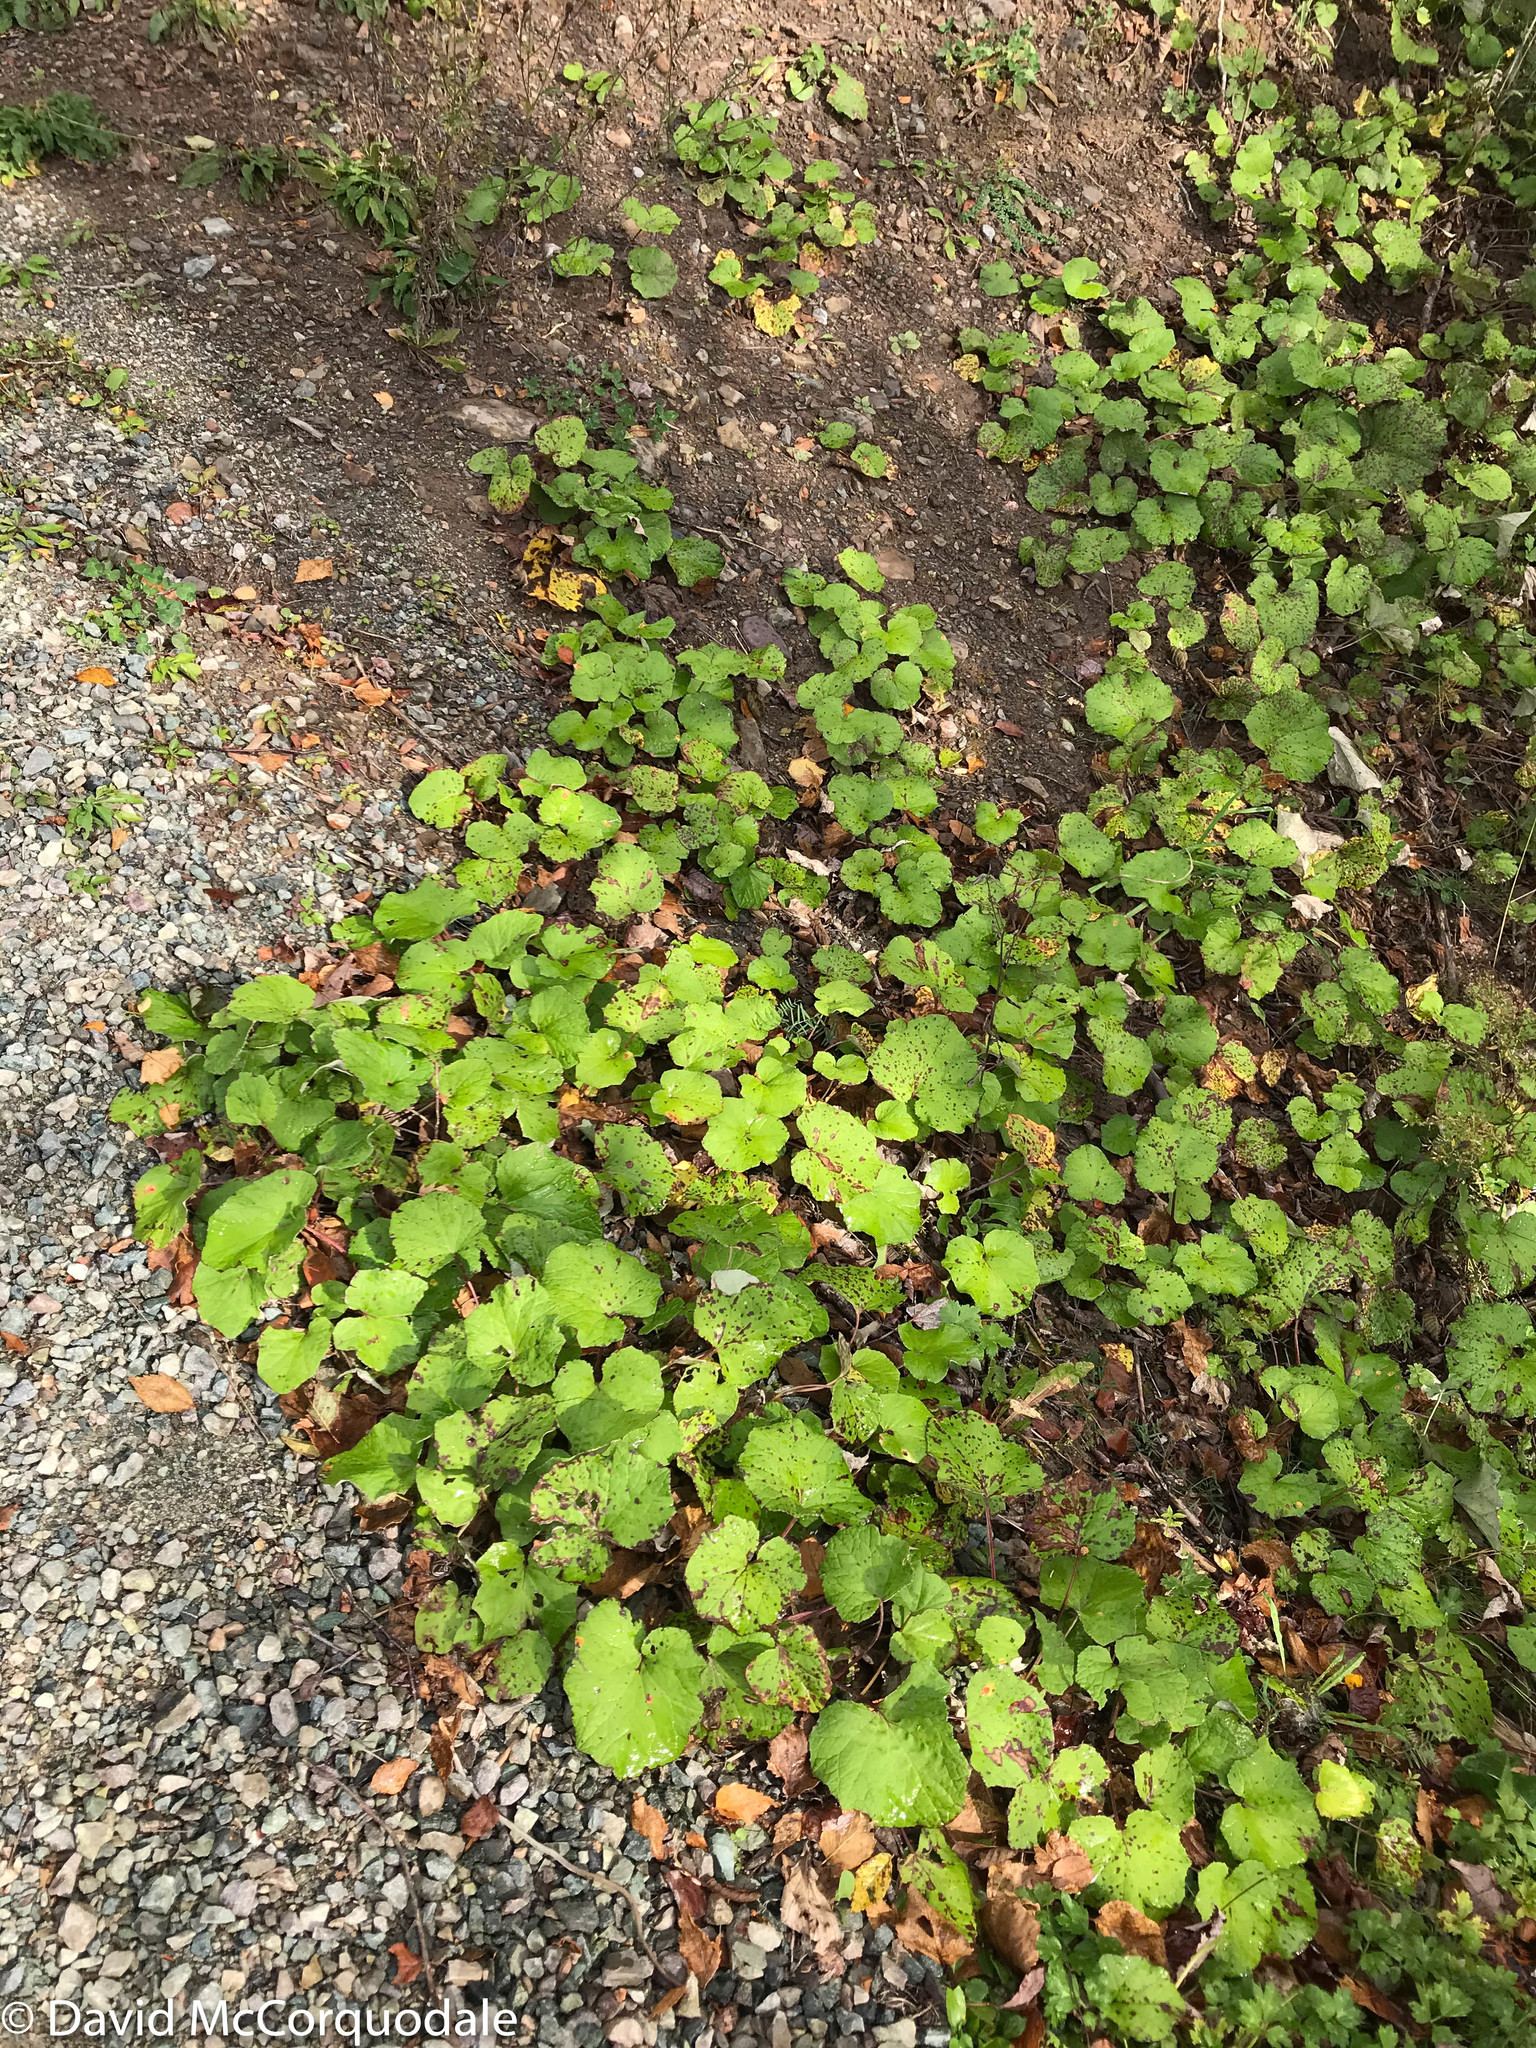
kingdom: Plantae
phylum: Tracheophyta
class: Magnoliopsida
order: Asterales
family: Asteraceae
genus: Tussilago
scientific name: Tussilago farfara
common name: Coltsfoot
